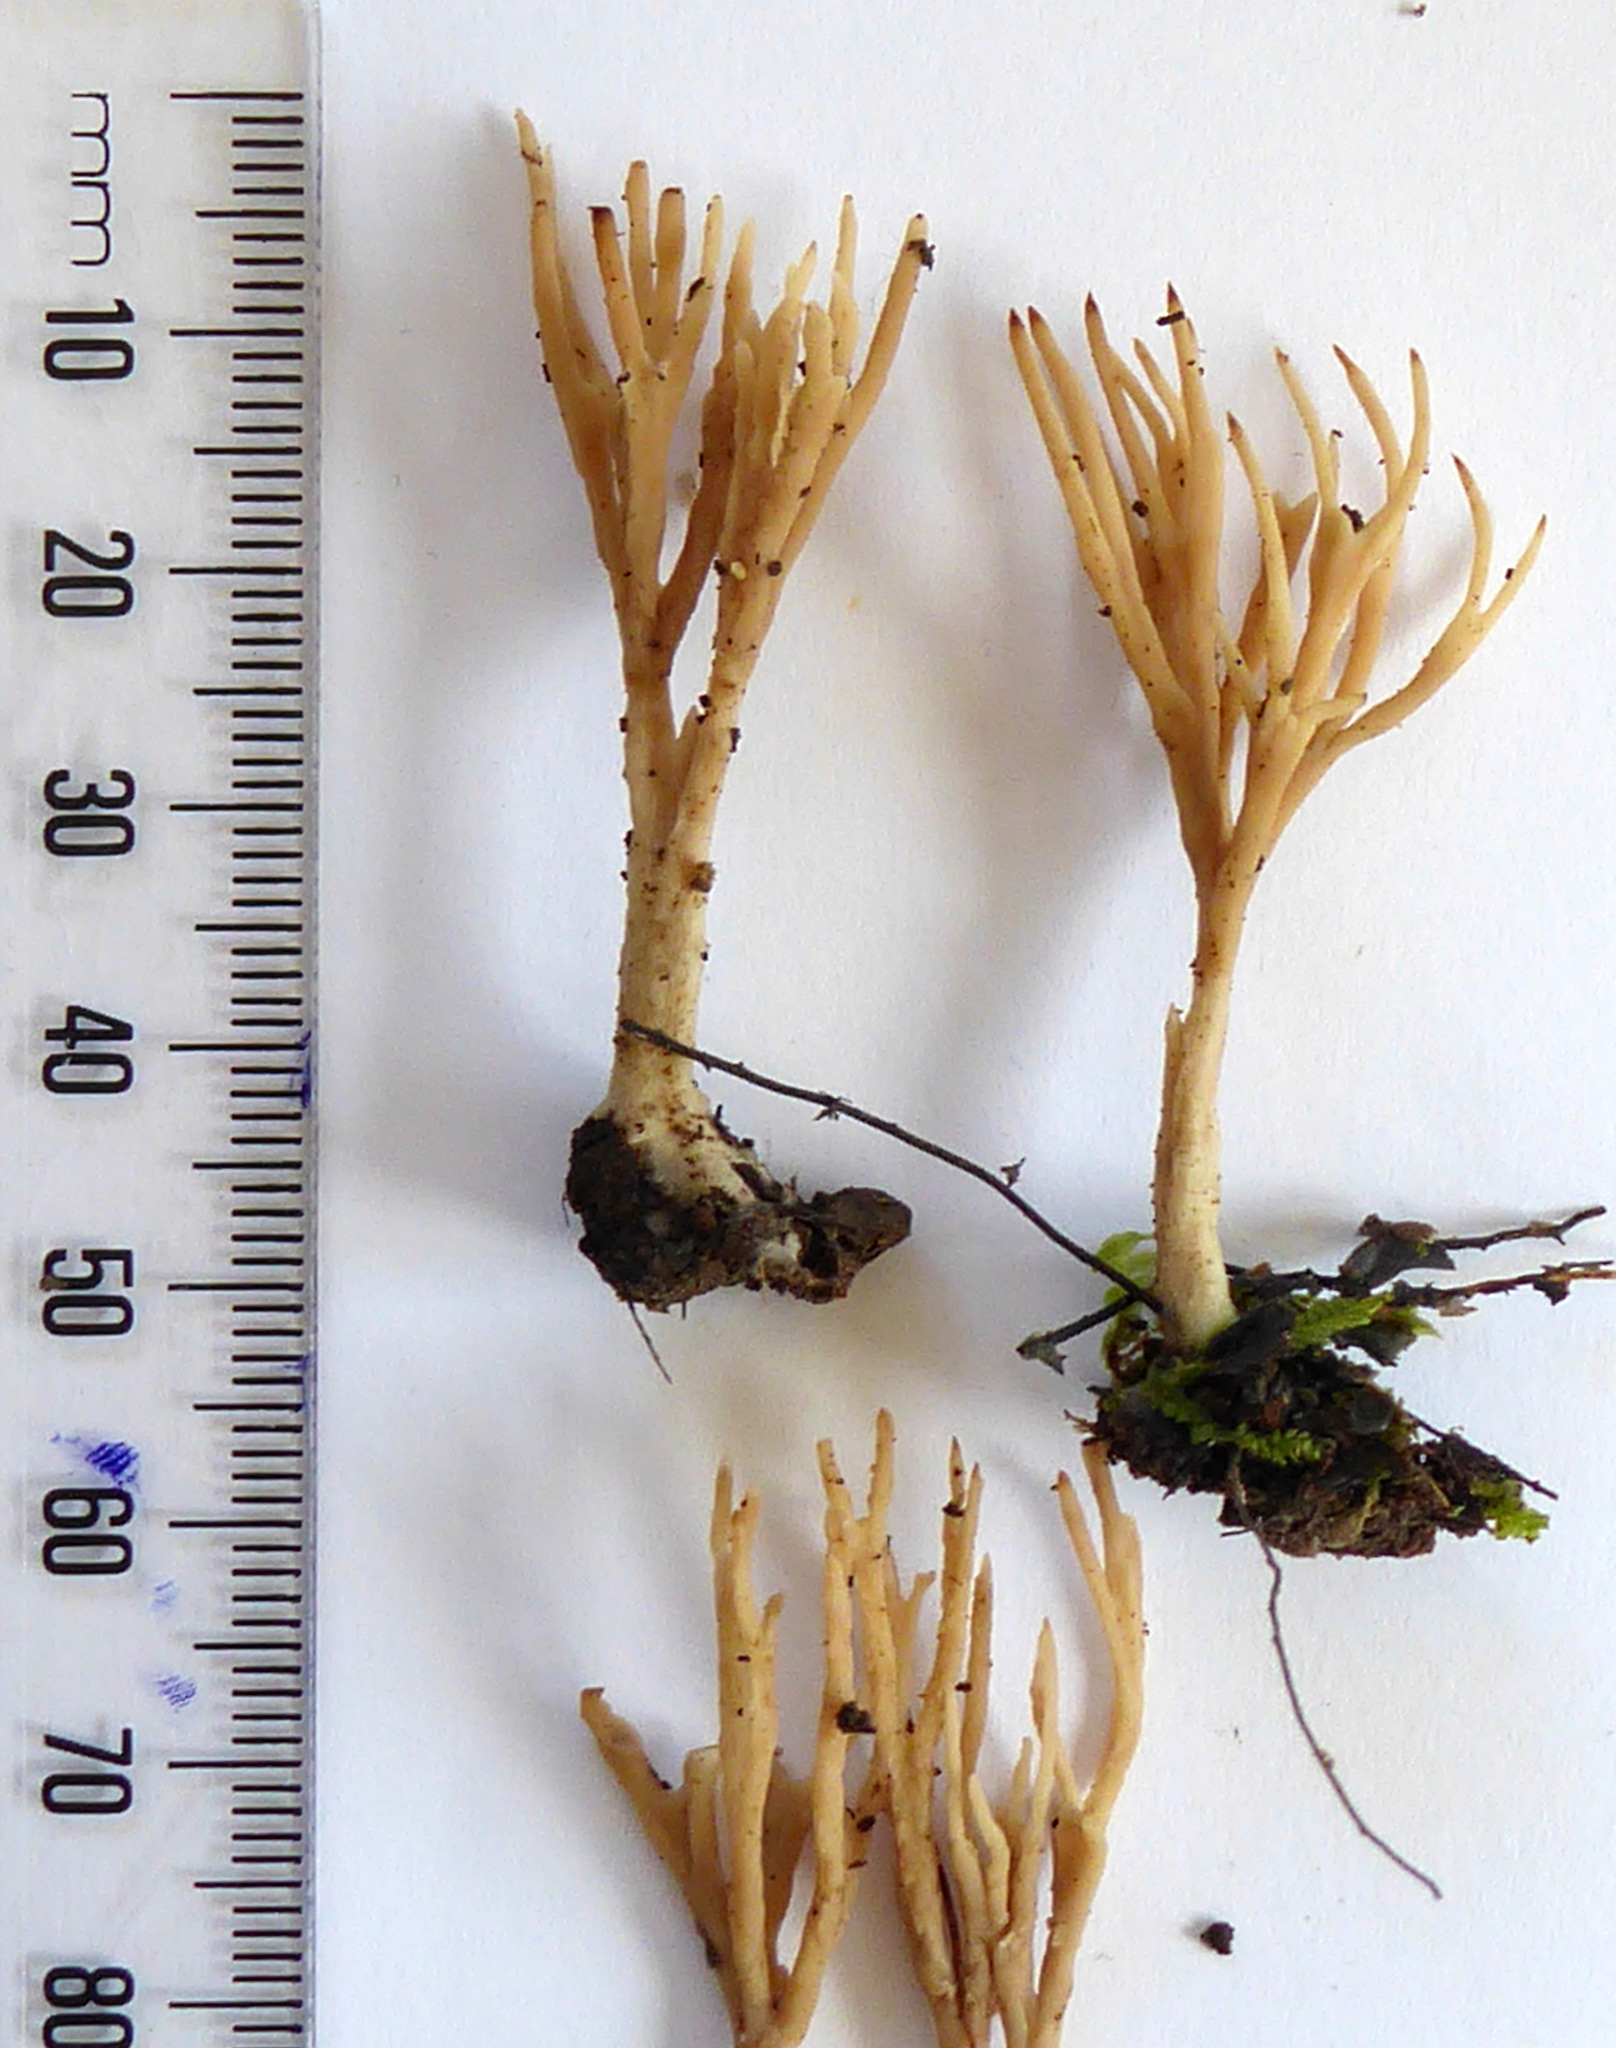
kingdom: Fungi
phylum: Basidiomycota
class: Agaricomycetes
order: Tremellodendropsidales
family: Tremellodendropsidaceae
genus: Tremellodendropsis
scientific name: Tremellodendropsis flagelliformis
